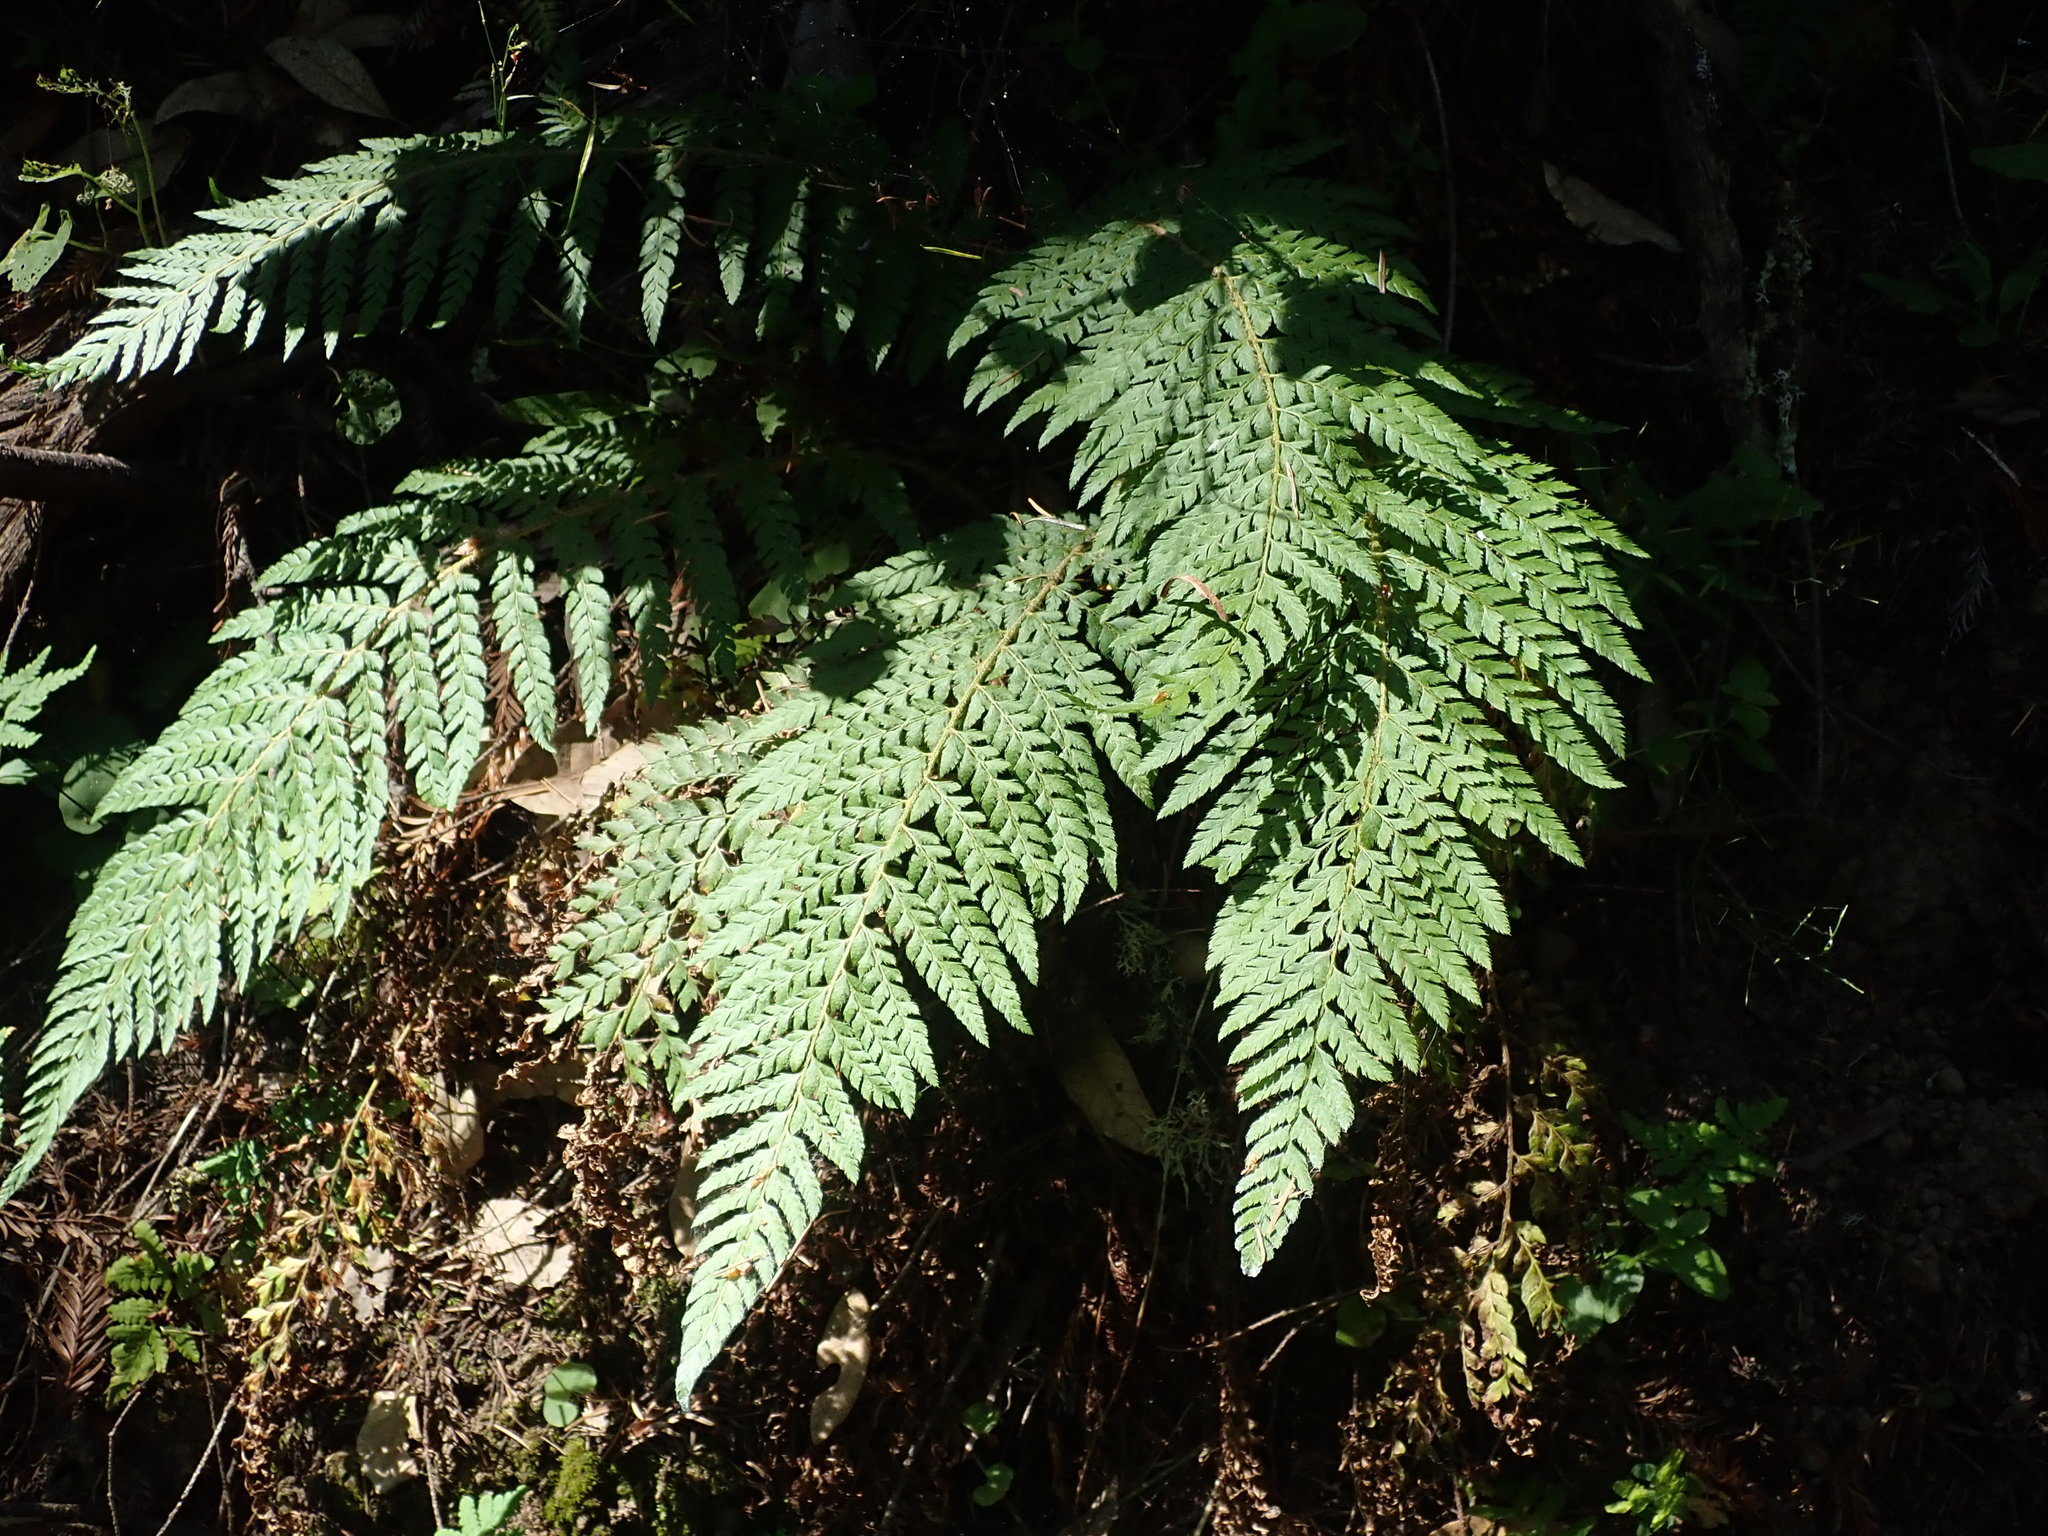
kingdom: Plantae
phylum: Tracheophyta
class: Polypodiopsida
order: Polypodiales
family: Dryopteridaceae
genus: Polystichum
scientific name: Polystichum dudleyi
